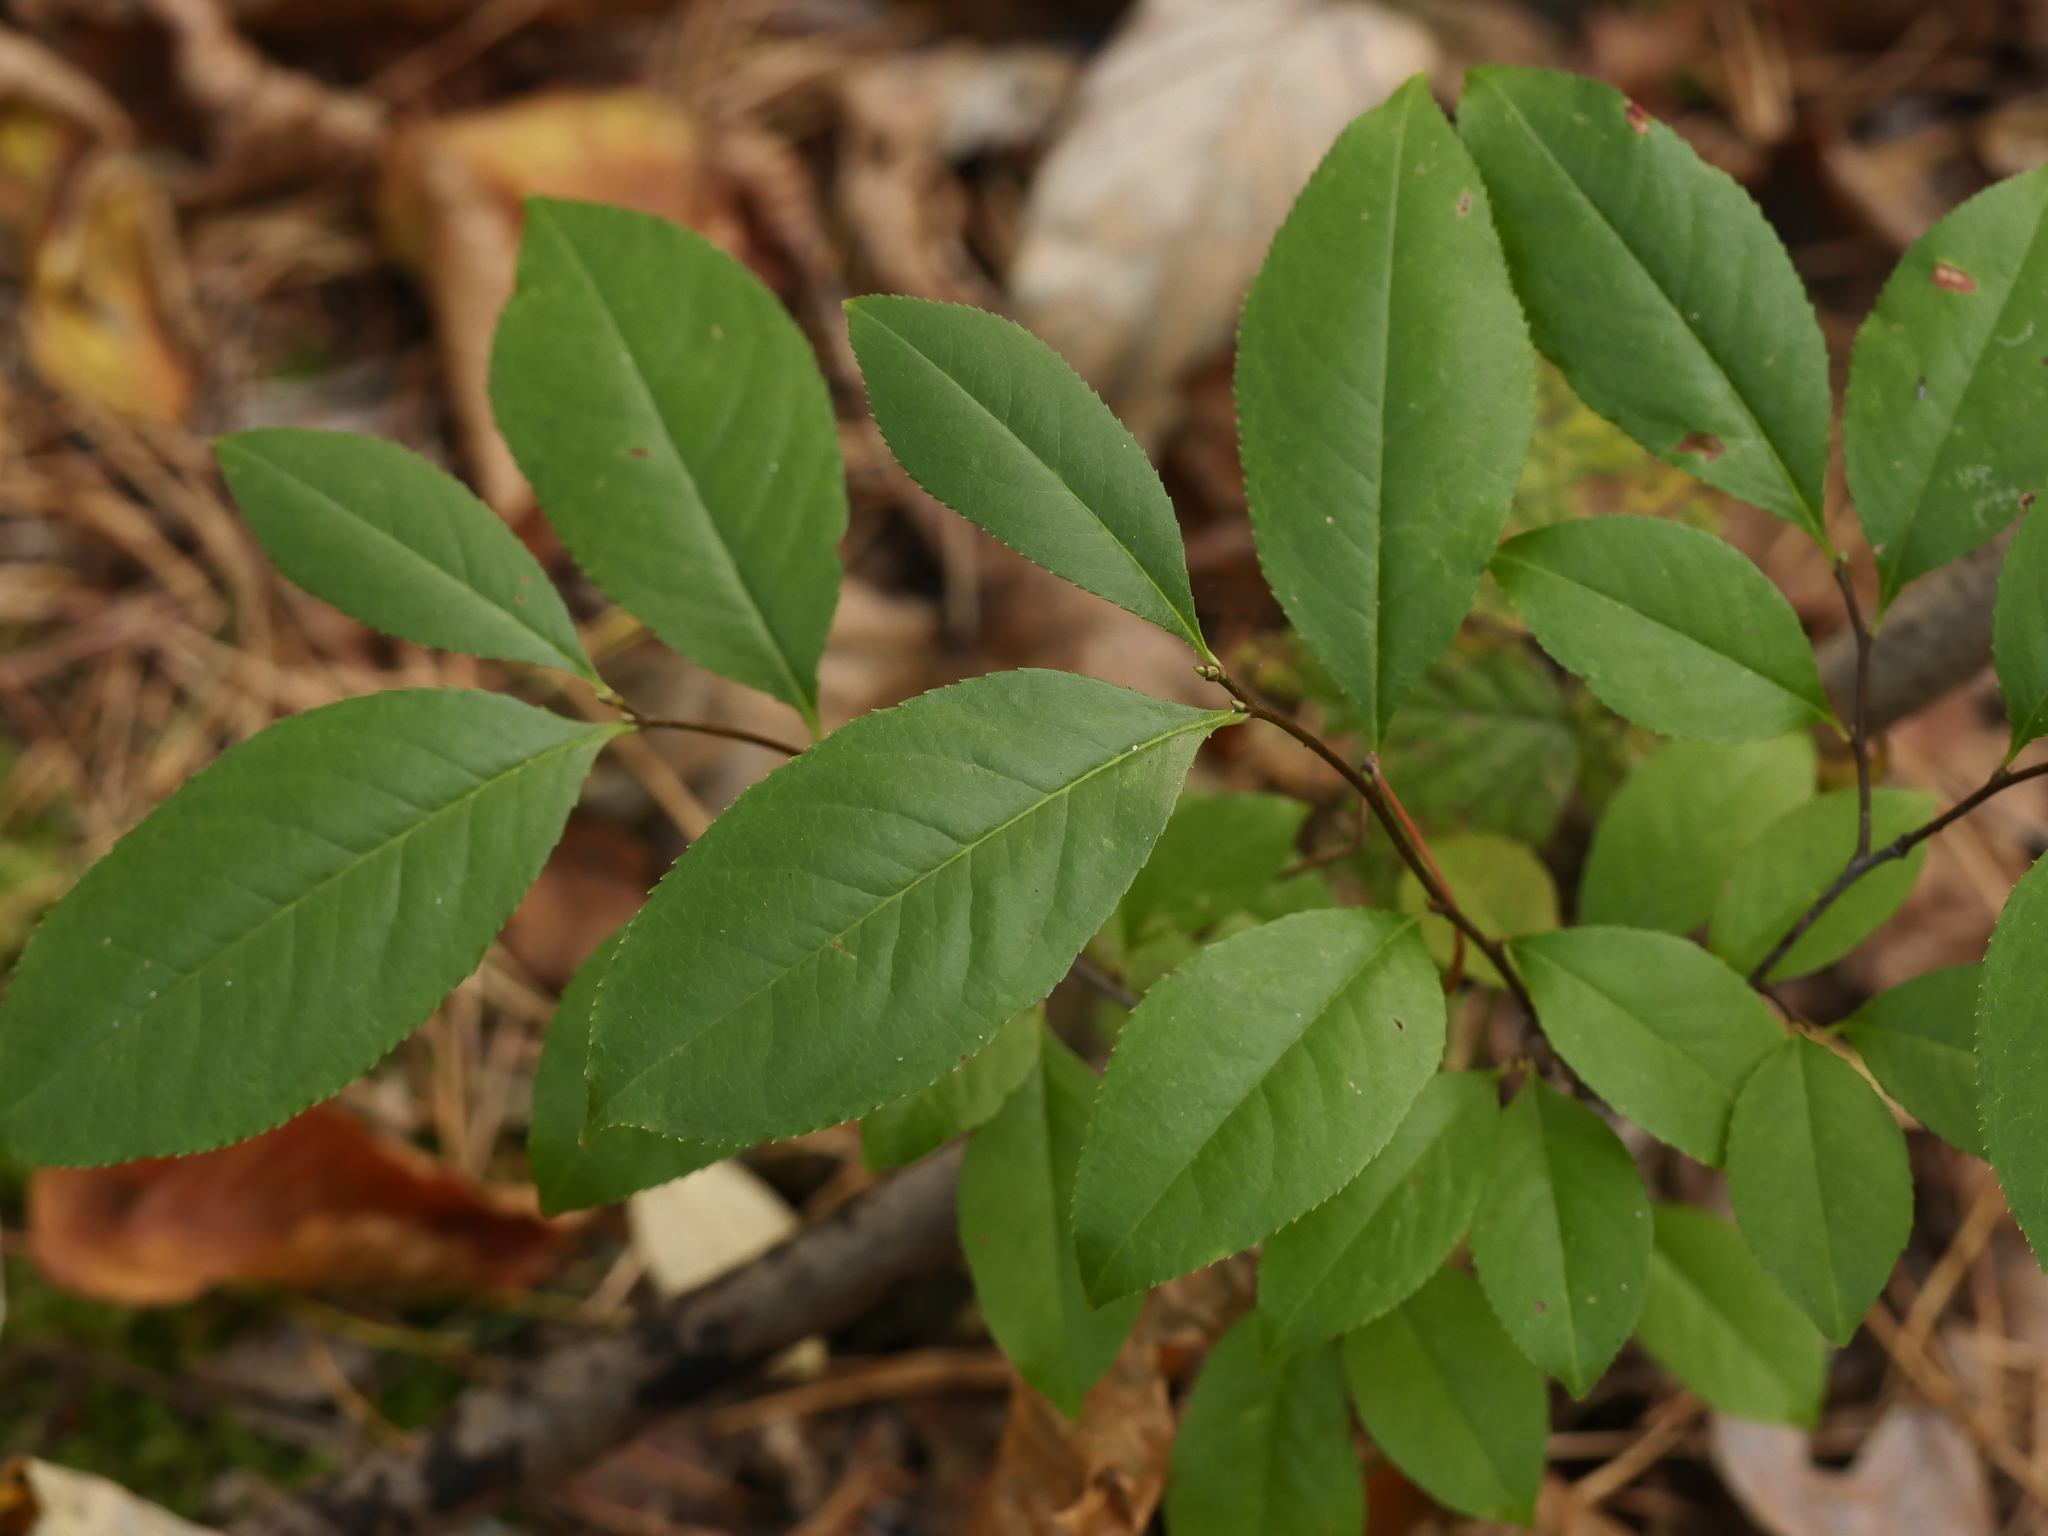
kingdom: Plantae
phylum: Tracheophyta
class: Magnoliopsida
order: Rosales
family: Rosaceae
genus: Prunus
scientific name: Prunus serotina
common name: Black cherry
